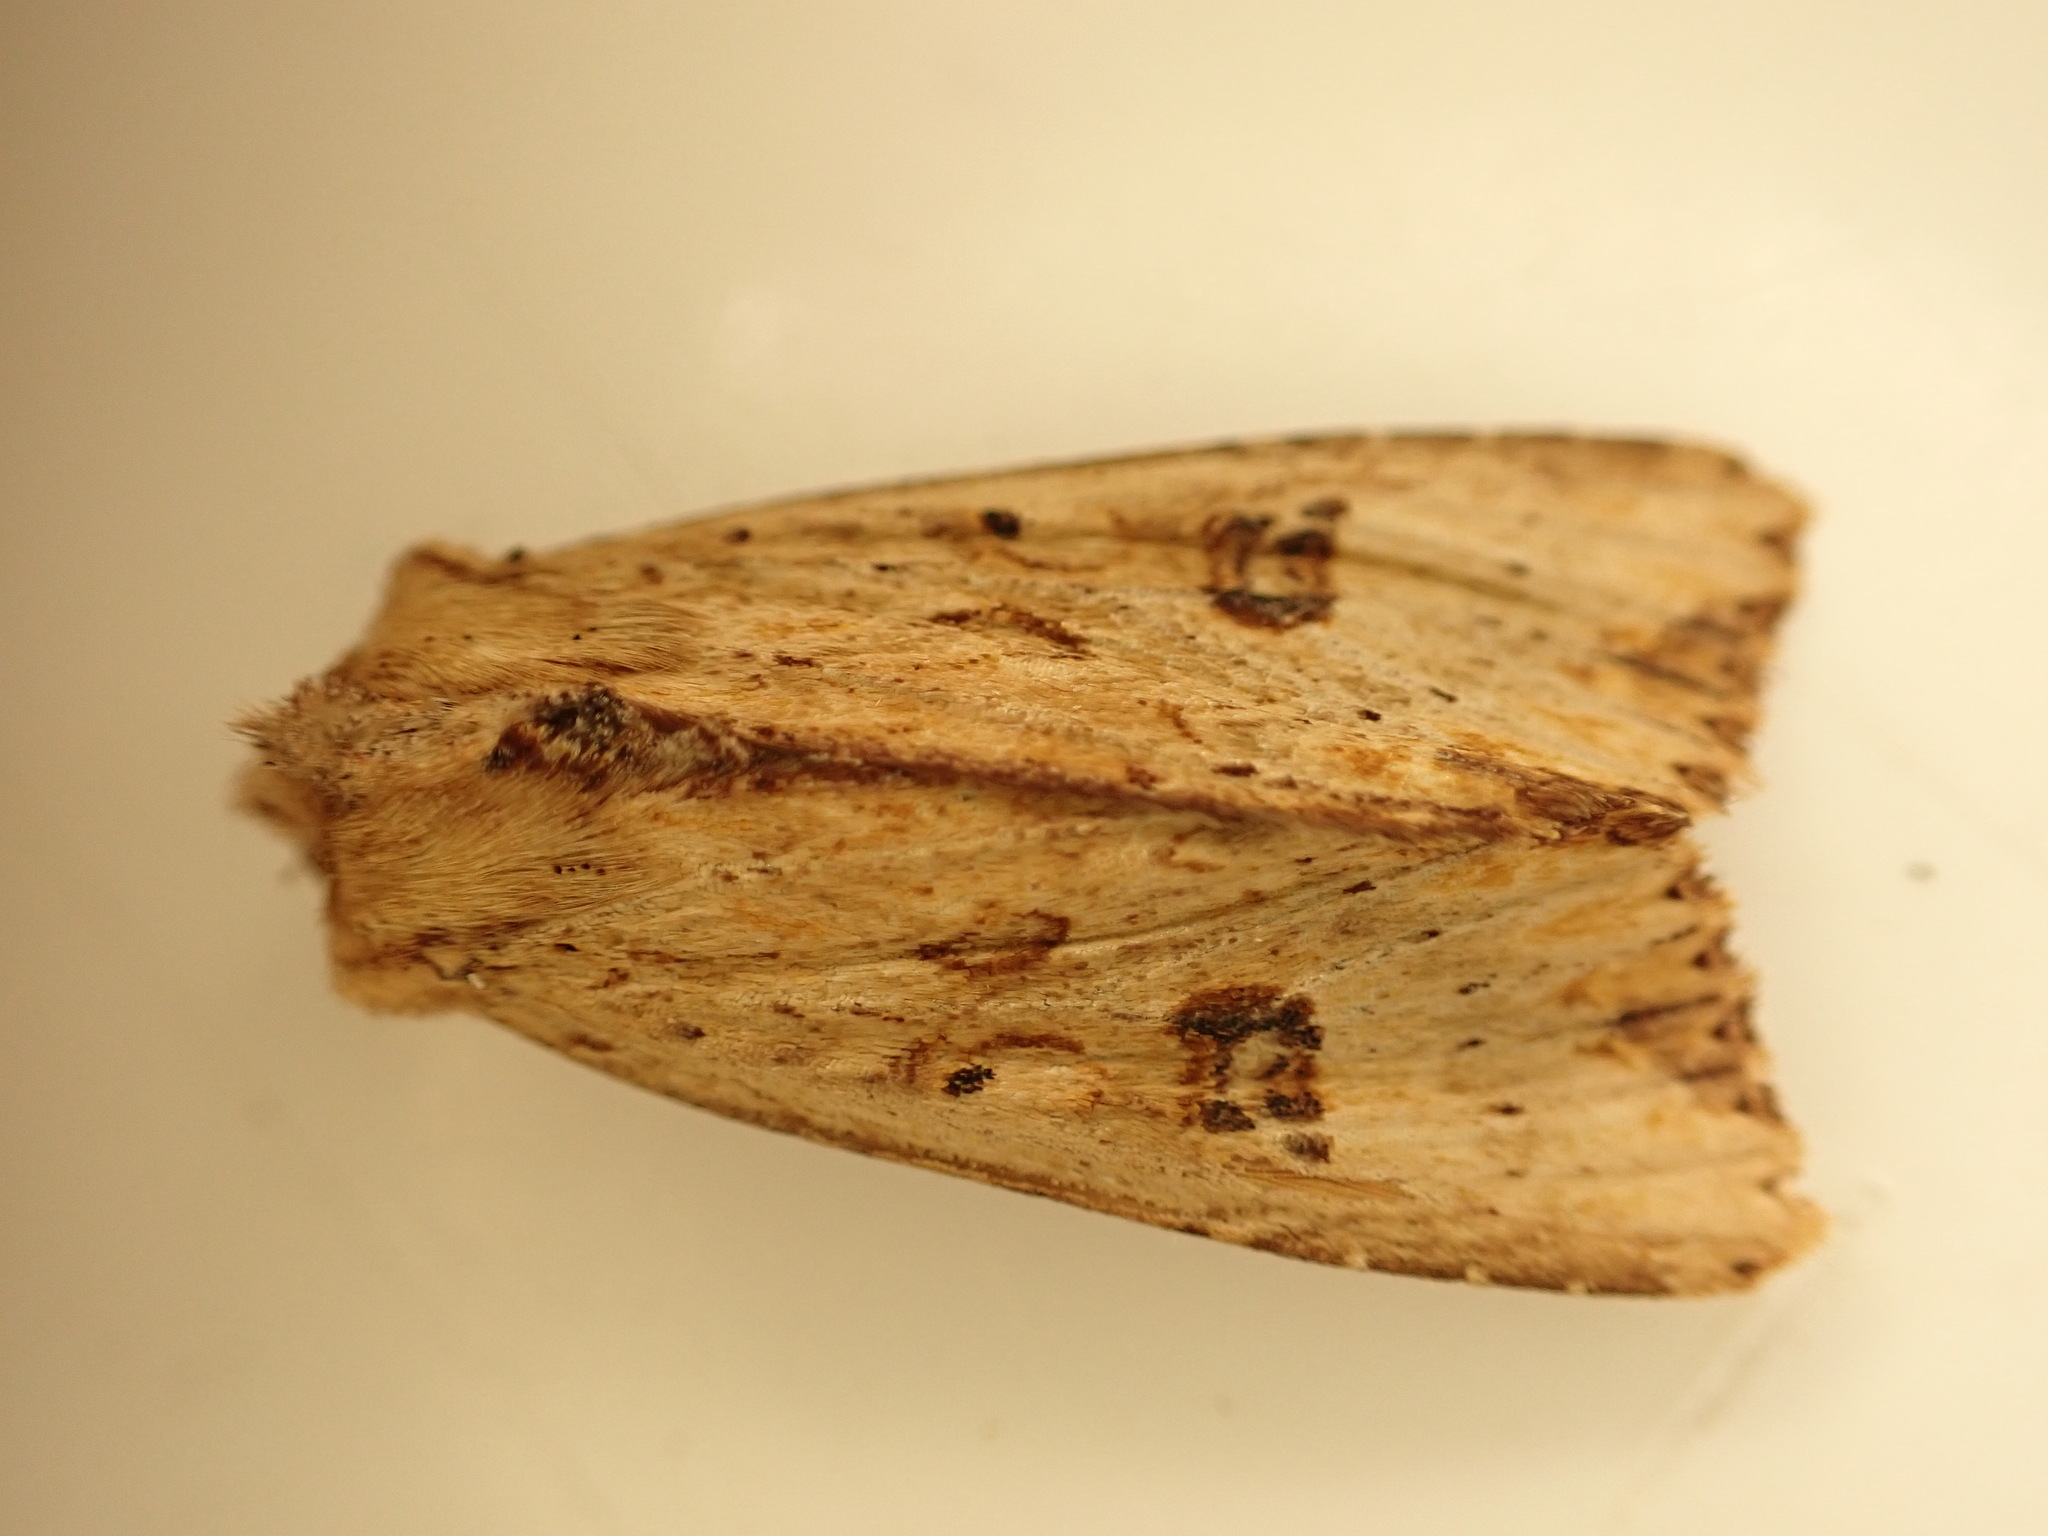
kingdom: Animalia
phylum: Arthropoda
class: Insecta
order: Lepidoptera
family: Noctuidae
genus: Ichneutica
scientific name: Ichneutica
